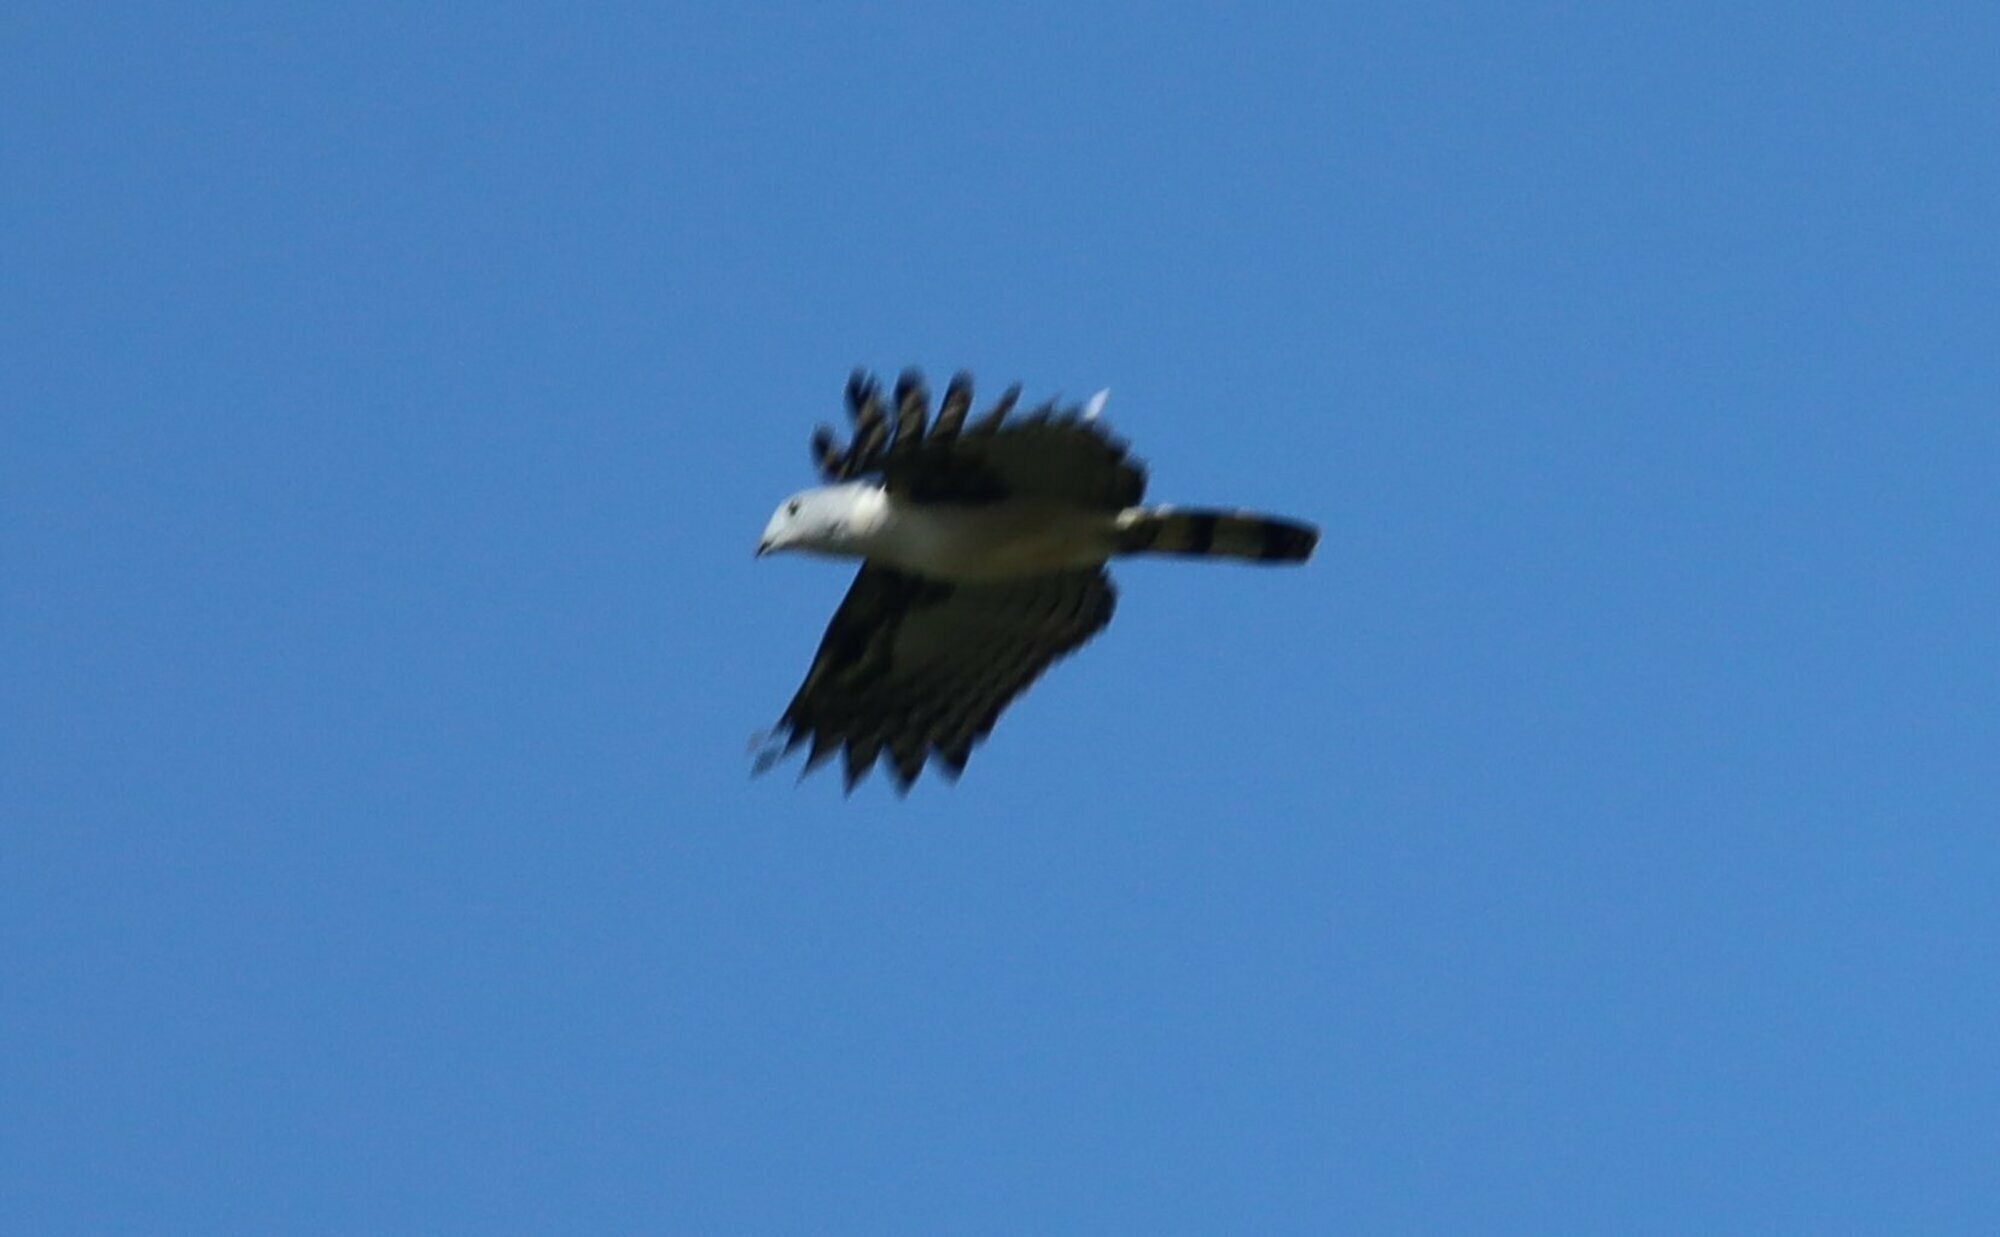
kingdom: Animalia
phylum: Chordata
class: Aves
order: Accipitriformes
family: Accipitridae
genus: Leptodon
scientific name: Leptodon cayanensis
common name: Gray-headed kite
